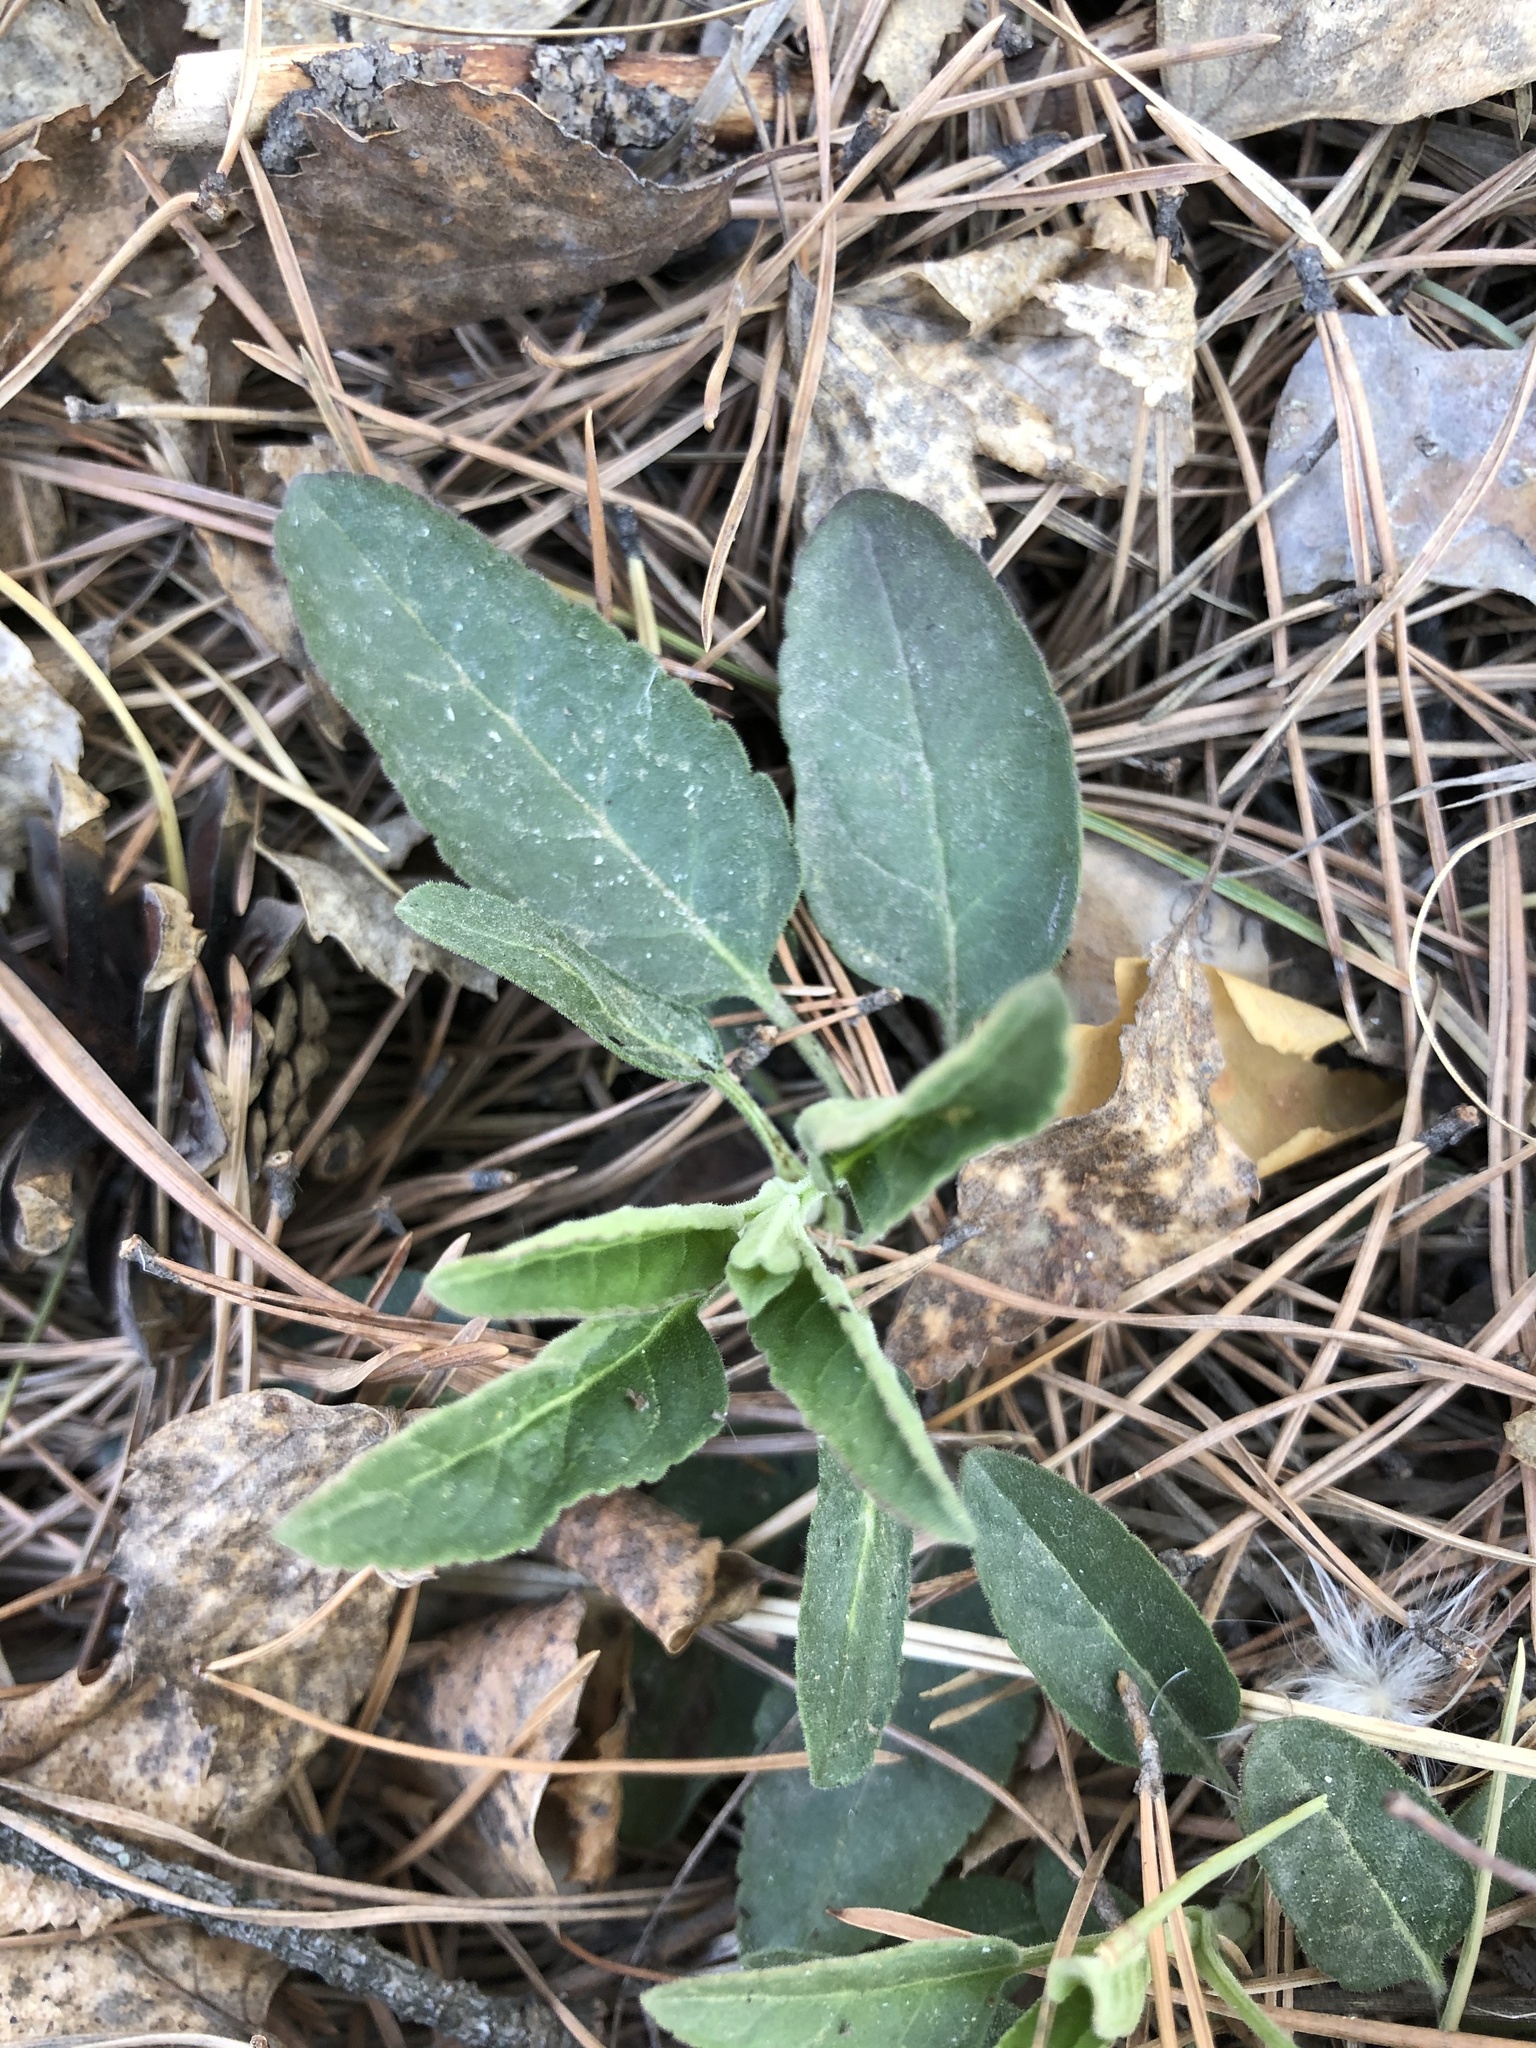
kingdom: Plantae
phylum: Tracheophyta
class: Magnoliopsida
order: Lamiales
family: Plantaginaceae
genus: Veronica
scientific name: Veronica spicata
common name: Spiked speedwell
